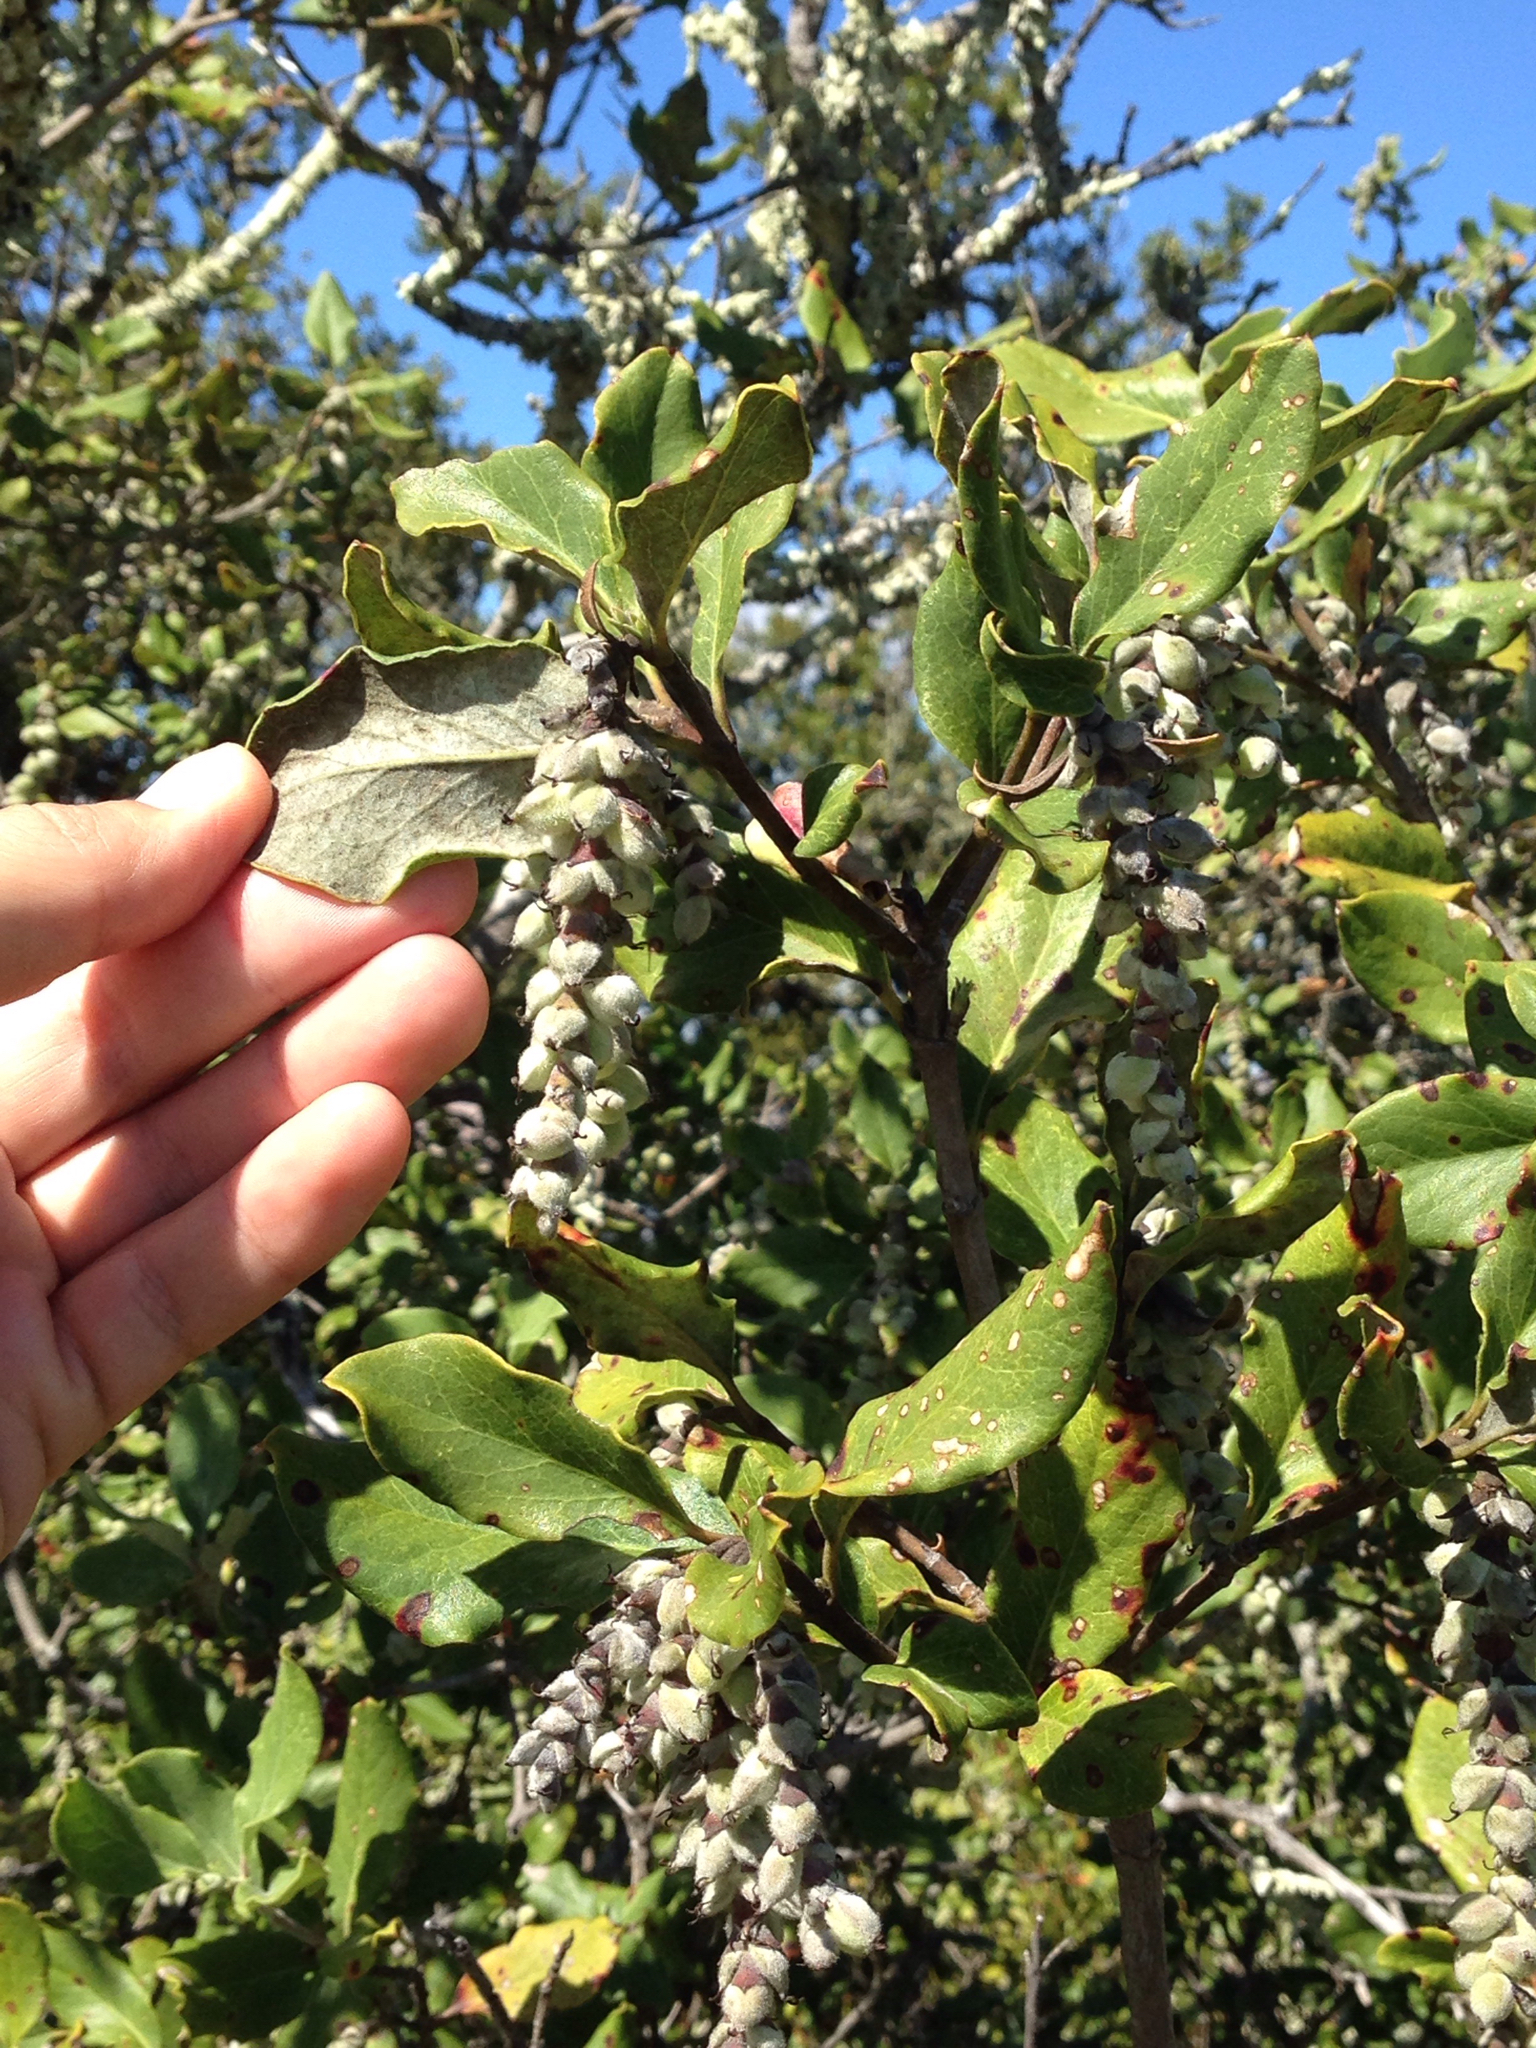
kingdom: Plantae
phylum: Tracheophyta
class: Magnoliopsida
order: Garryales
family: Garryaceae
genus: Garrya
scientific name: Garrya elliptica
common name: Silk-tassel
